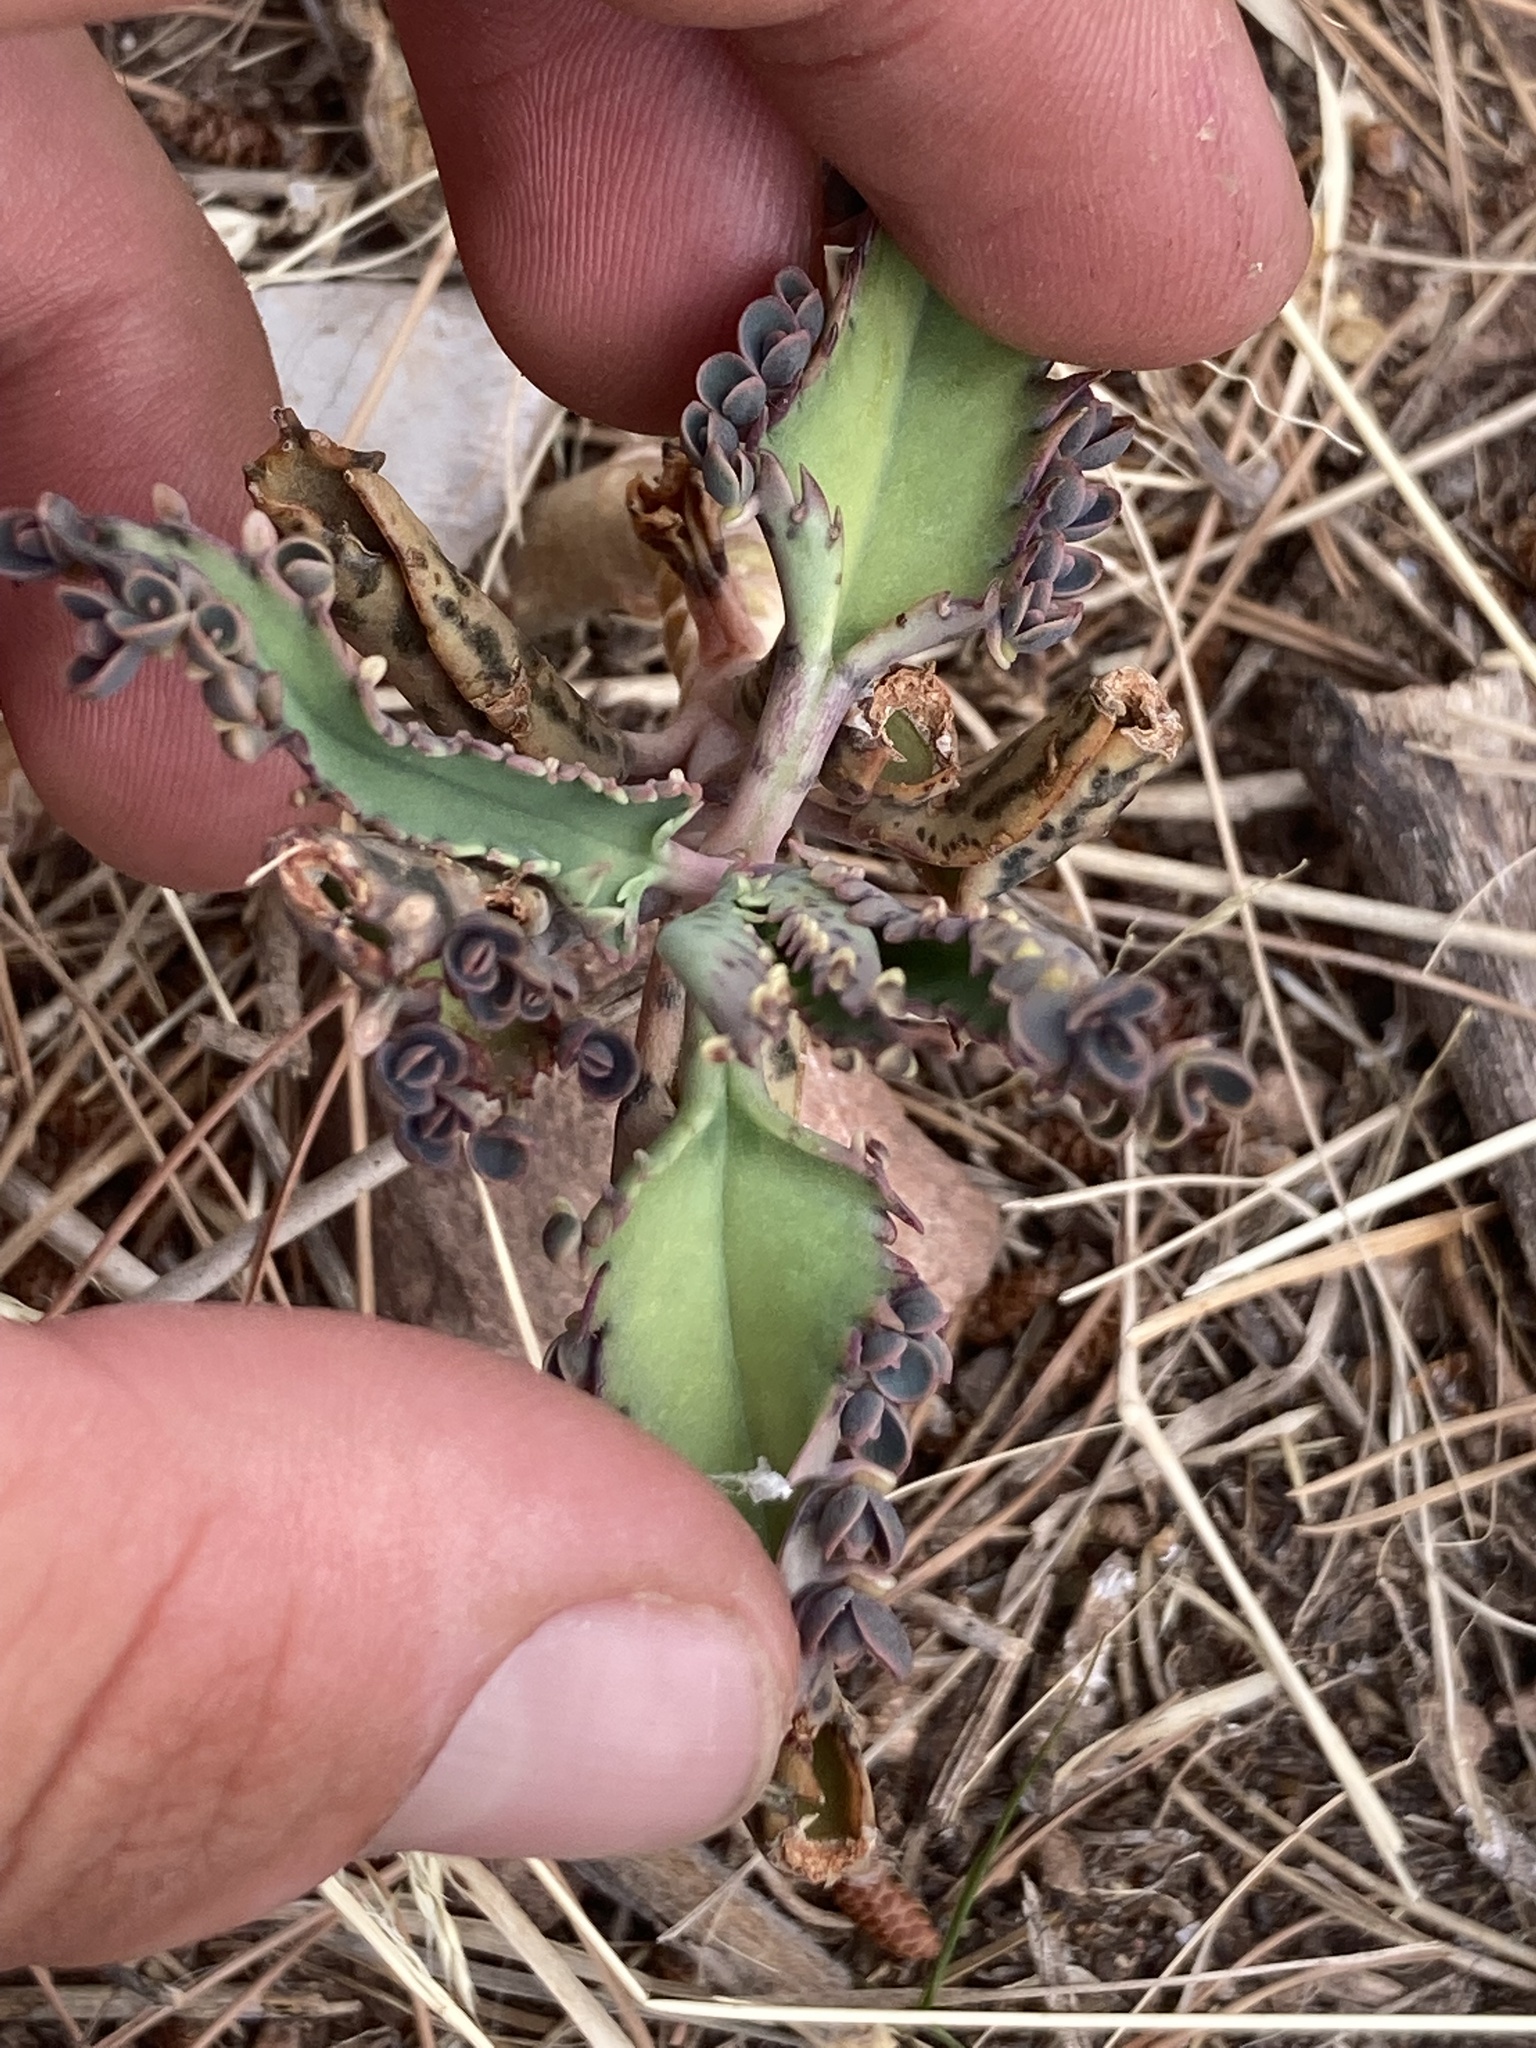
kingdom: Plantae
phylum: Tracheophyta
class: Magnoliopsida
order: Saxifragales
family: Crassulaceae
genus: Kalanchoe
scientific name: Kalanchoe houghtonii
